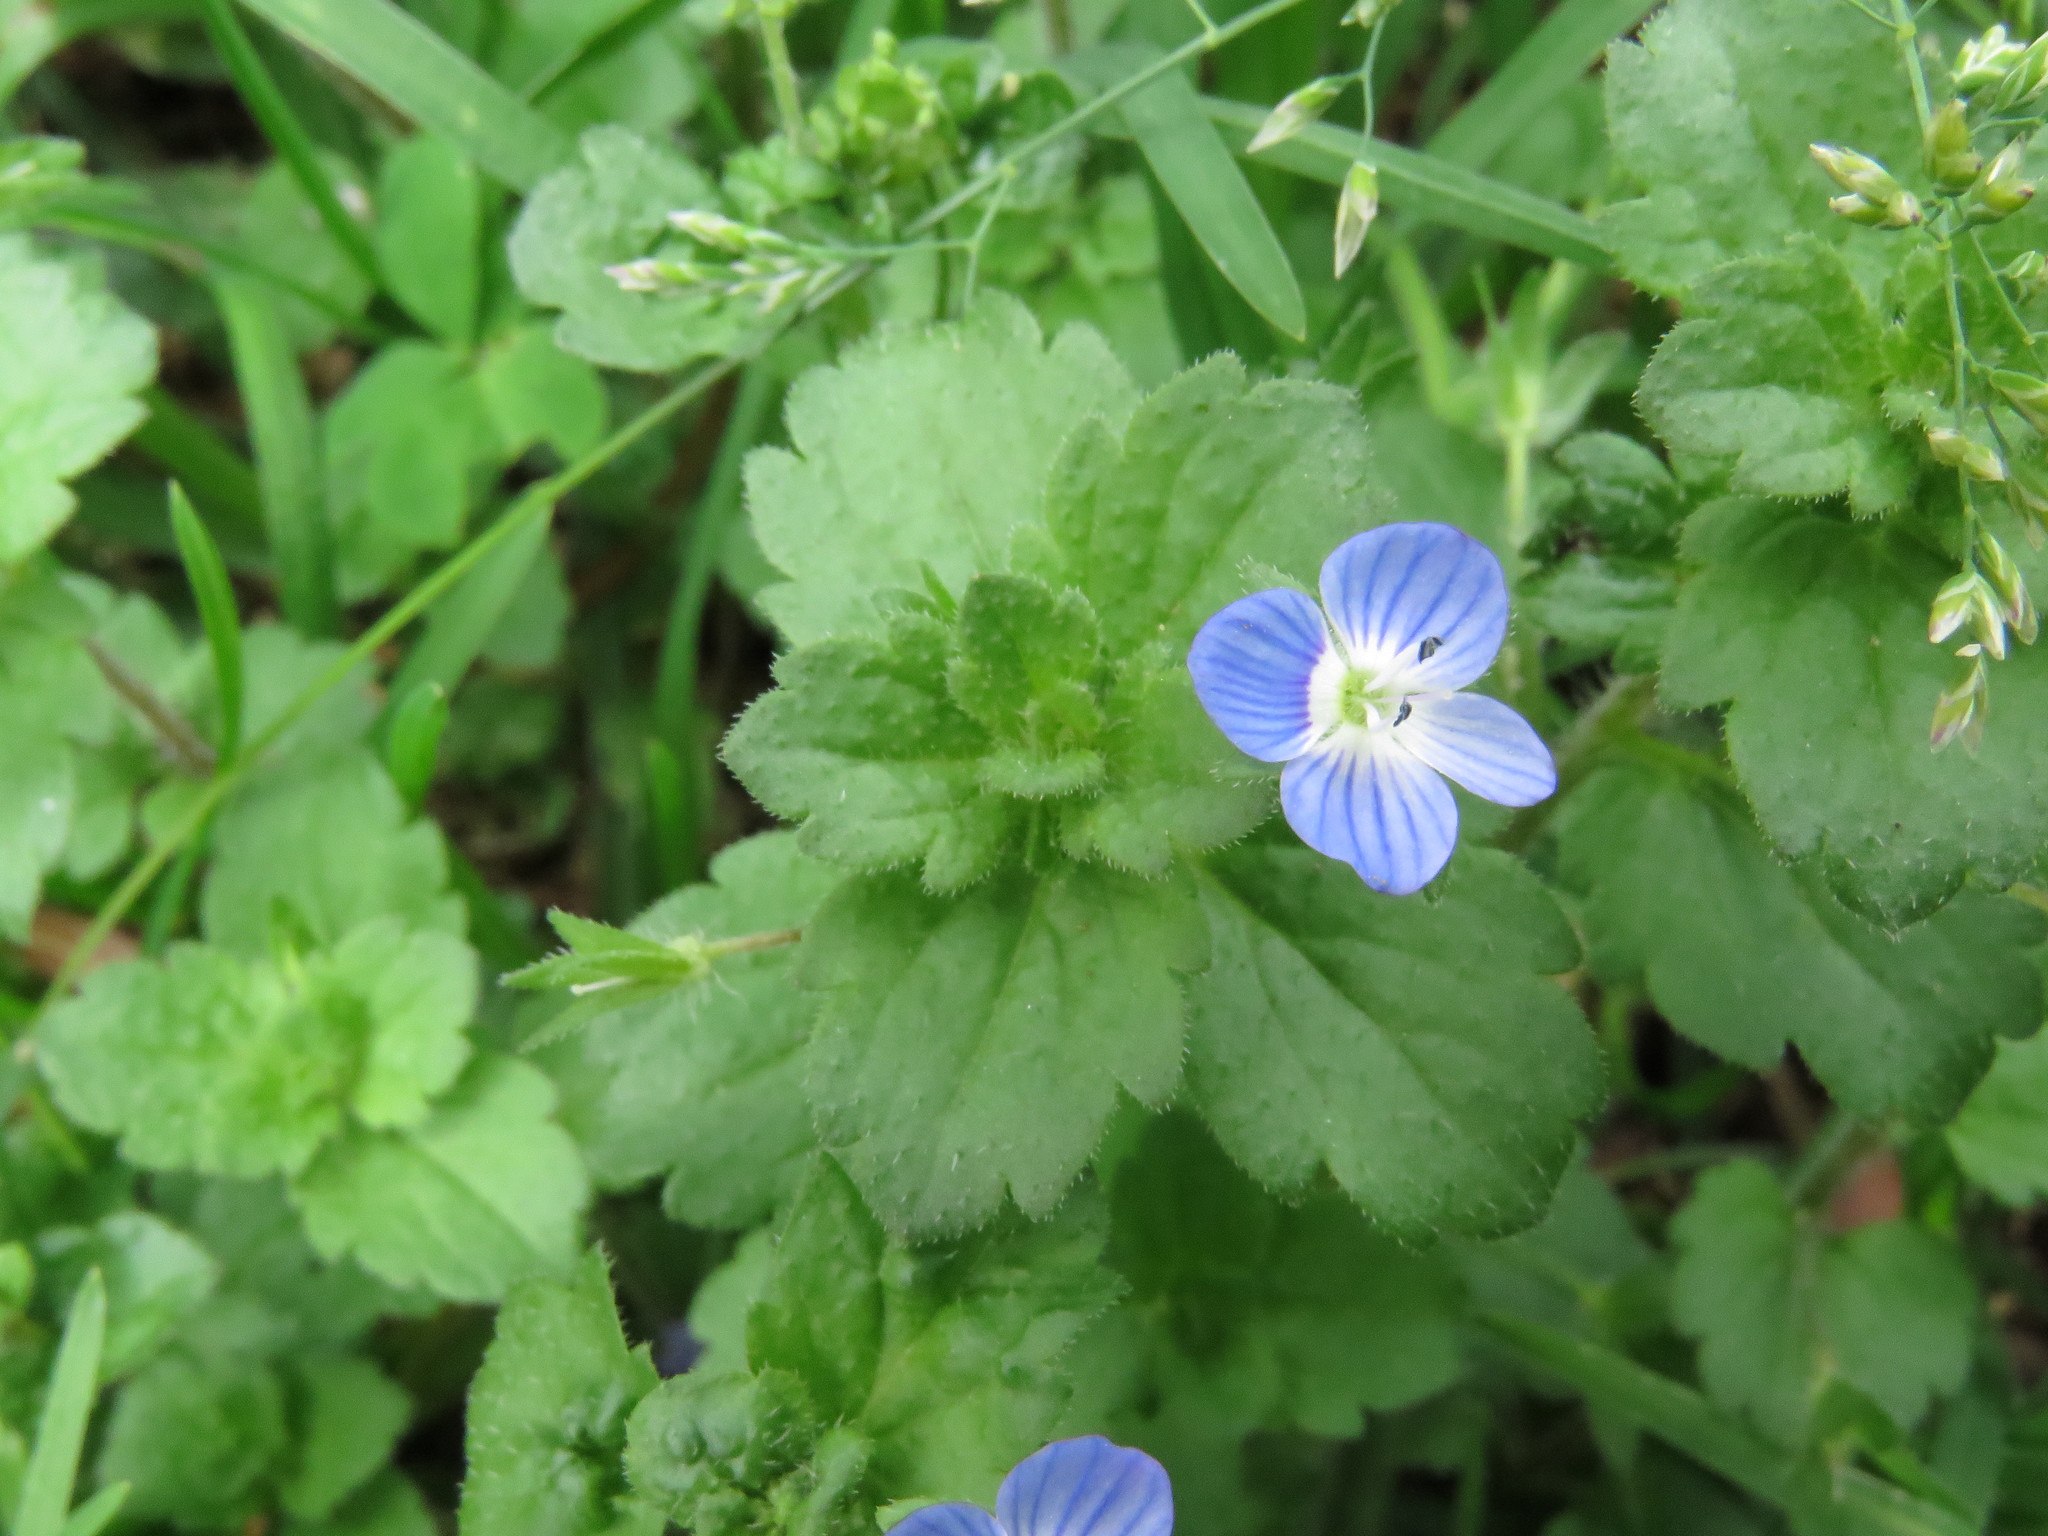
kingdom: Plantae
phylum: Tracheophyta
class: Magnoliopsida
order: Lamiales
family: Plantaginaceae
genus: Veronica
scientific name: Veronica persica
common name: Common field-speedwell
